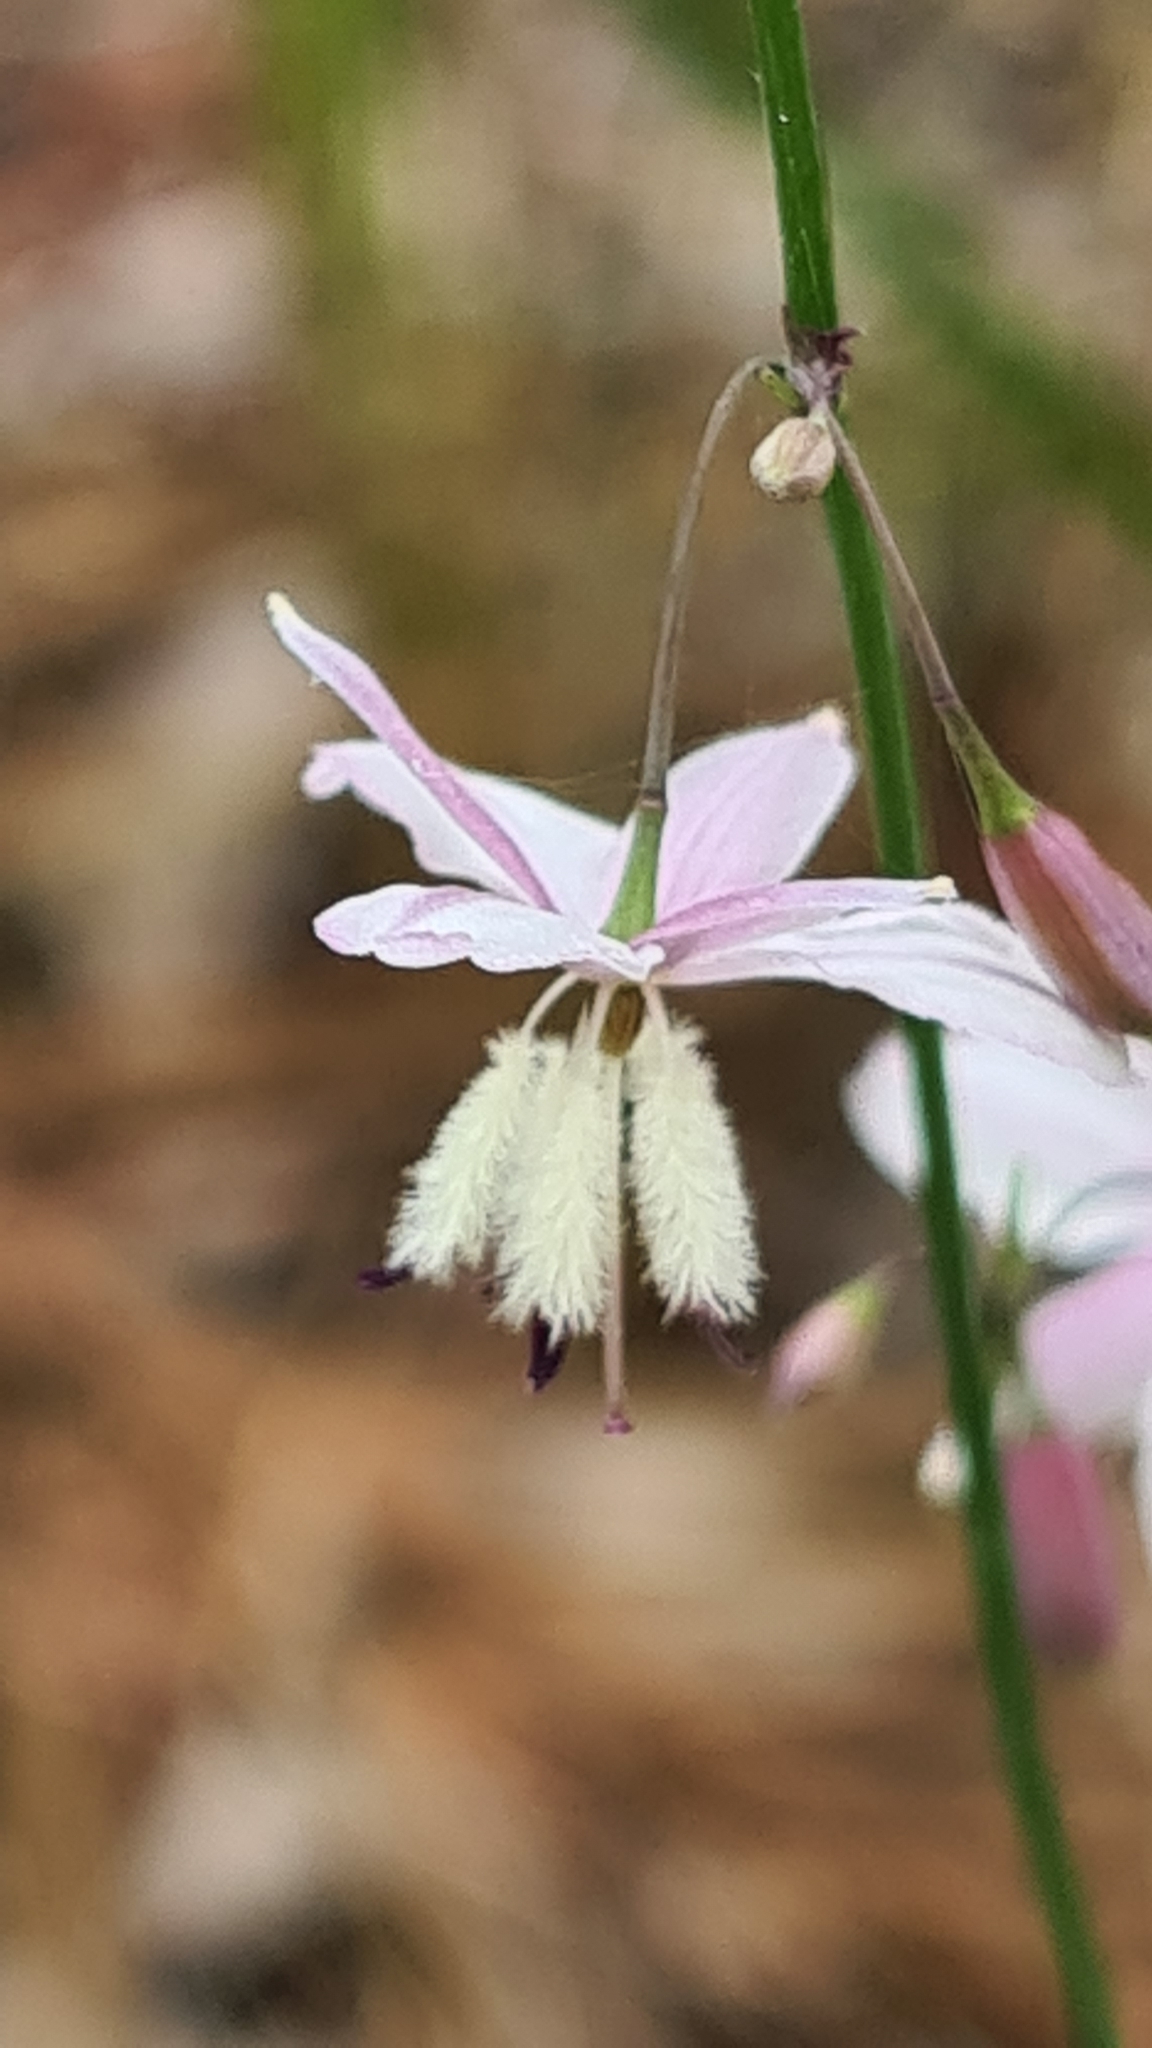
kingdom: Plantae
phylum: Tracheophyta
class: Liliopsida
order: Asparagales
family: Asparagaceae
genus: Arthropodium
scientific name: Arthropodium milleflorum
